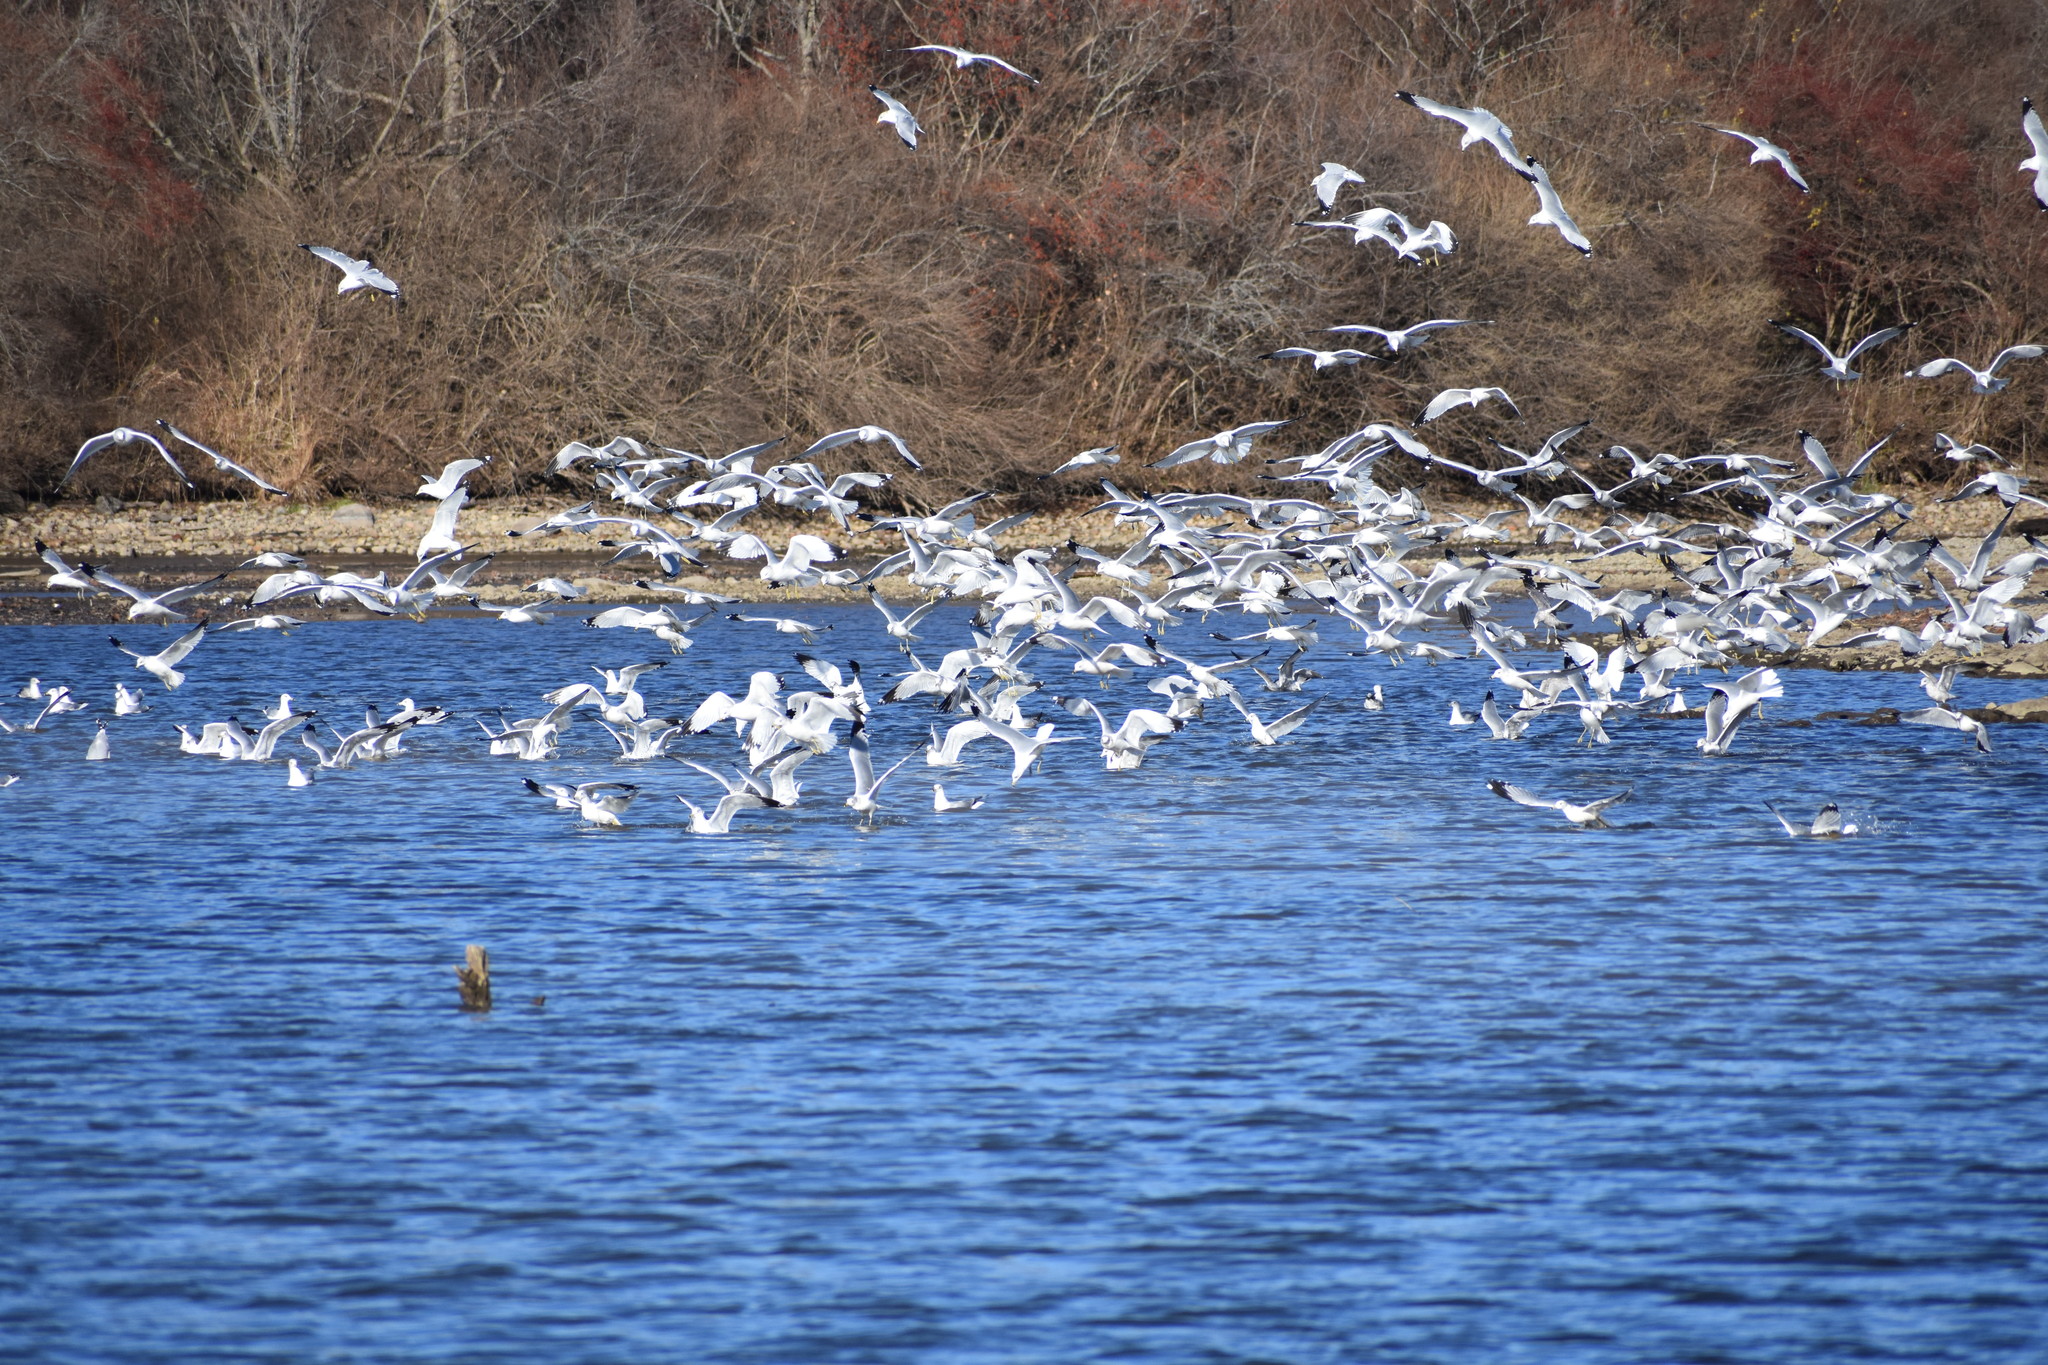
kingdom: Animalia
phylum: Chordata
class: Aves
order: Charadriiformes
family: Laridae
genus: Larus
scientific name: Larus delawarensis
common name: Ring-billed gull
